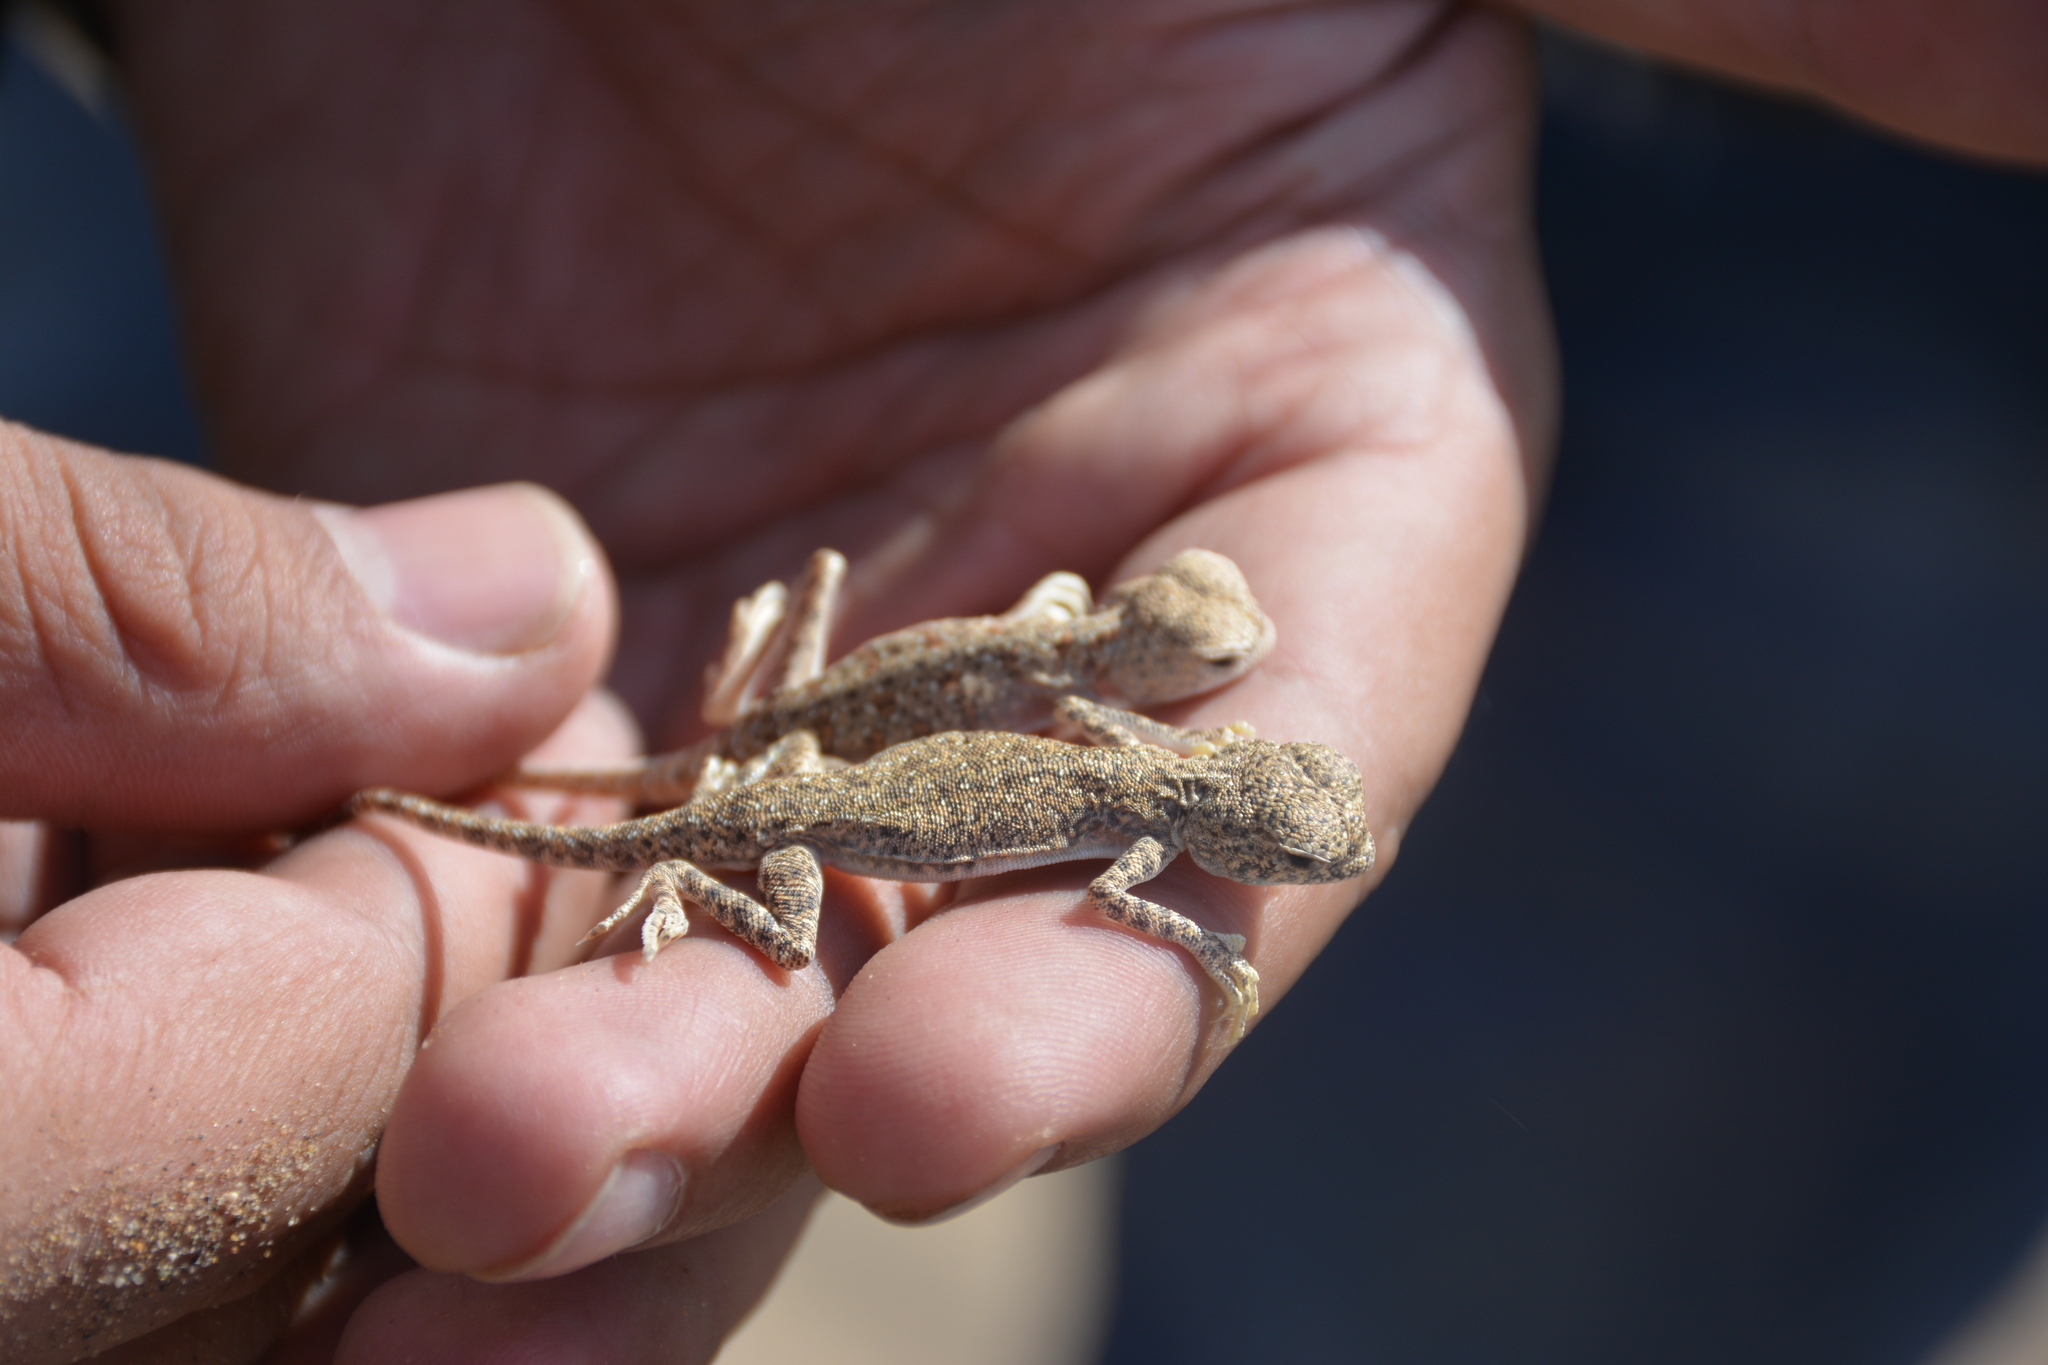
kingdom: Animalia
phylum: Chordata
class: Squamata
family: Agamidae
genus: Phrynocephalus
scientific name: Phrynocephalus maculatus
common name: Spotted toad-headed agama
